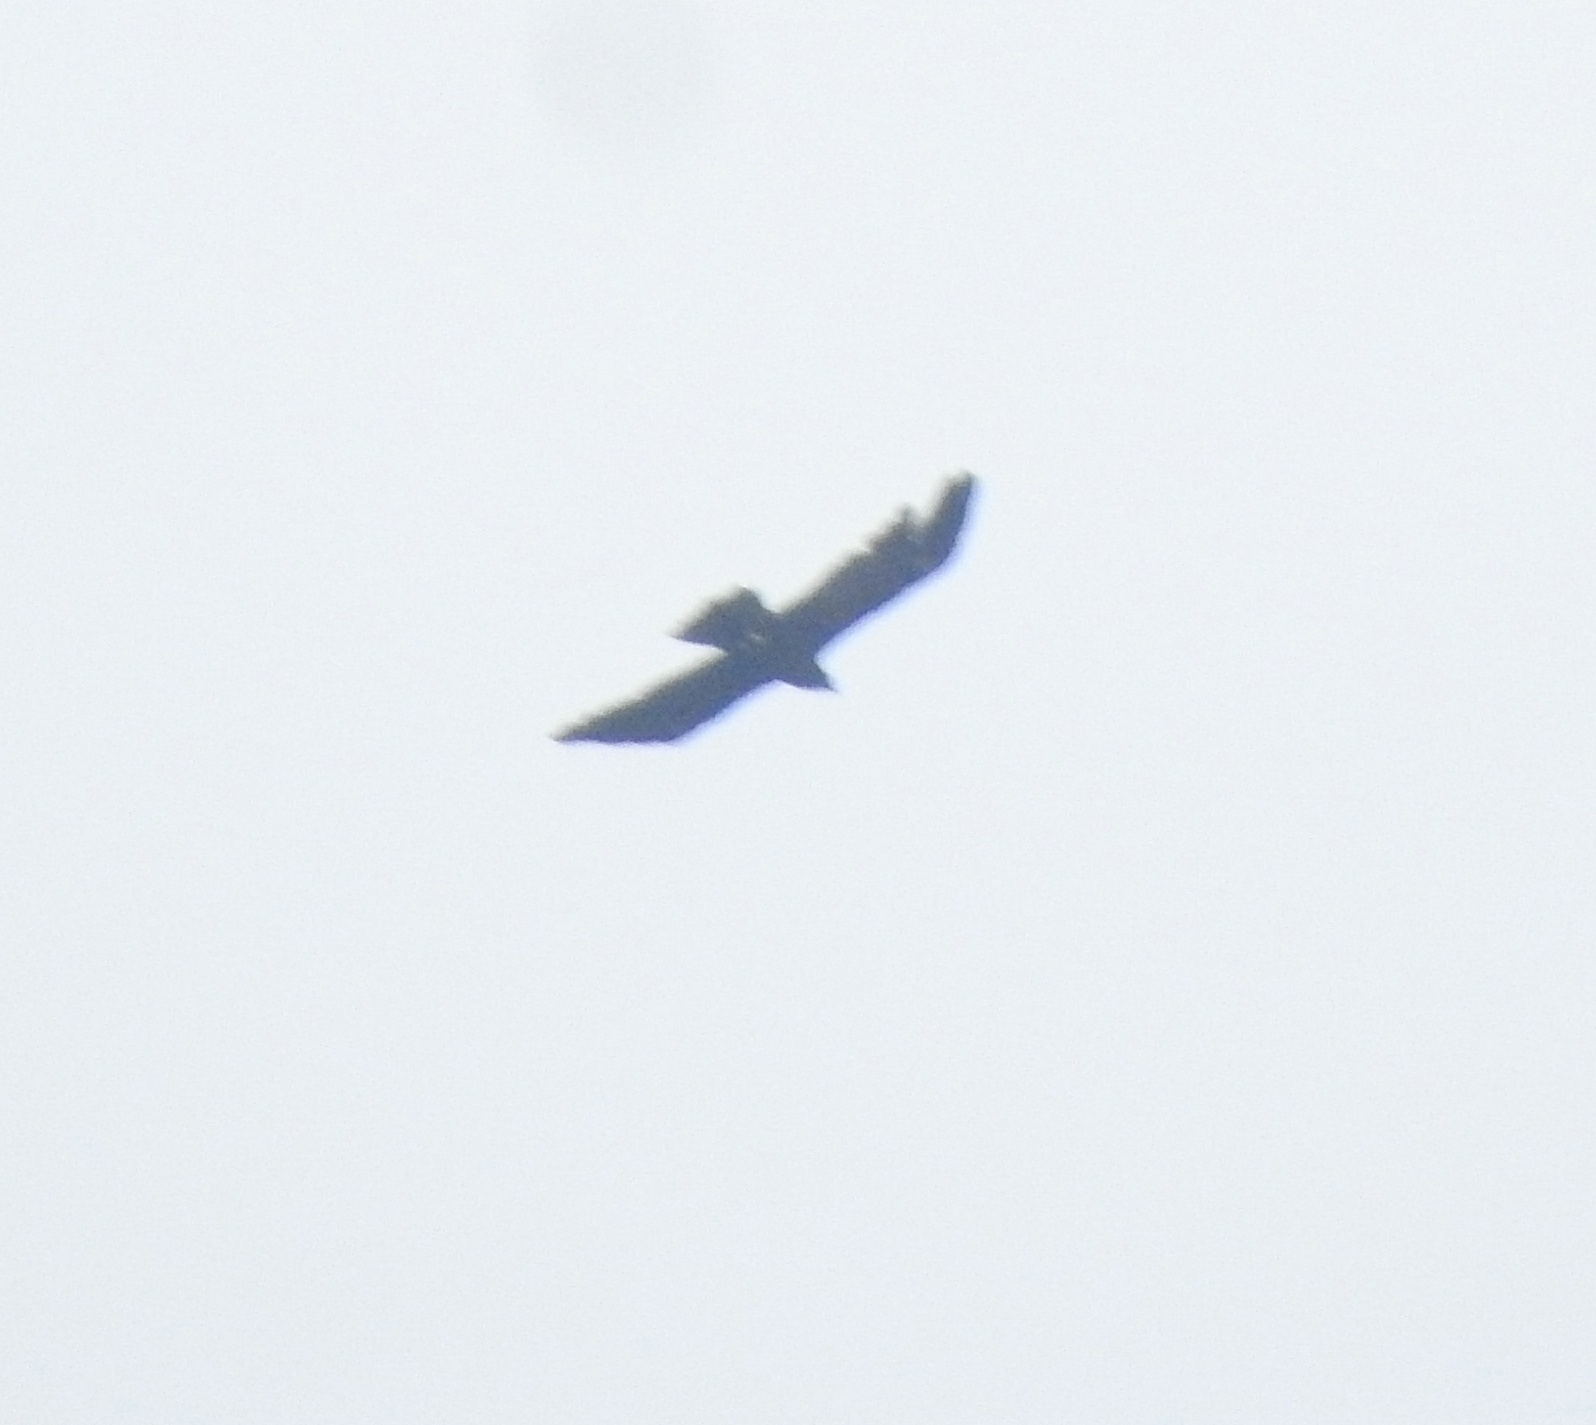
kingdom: Animalia
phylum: Chordata
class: Aves
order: Accipitriformes
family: Accipitridae
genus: Ictinaetus
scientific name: Ictinaetus malayensis
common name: Black eagle
